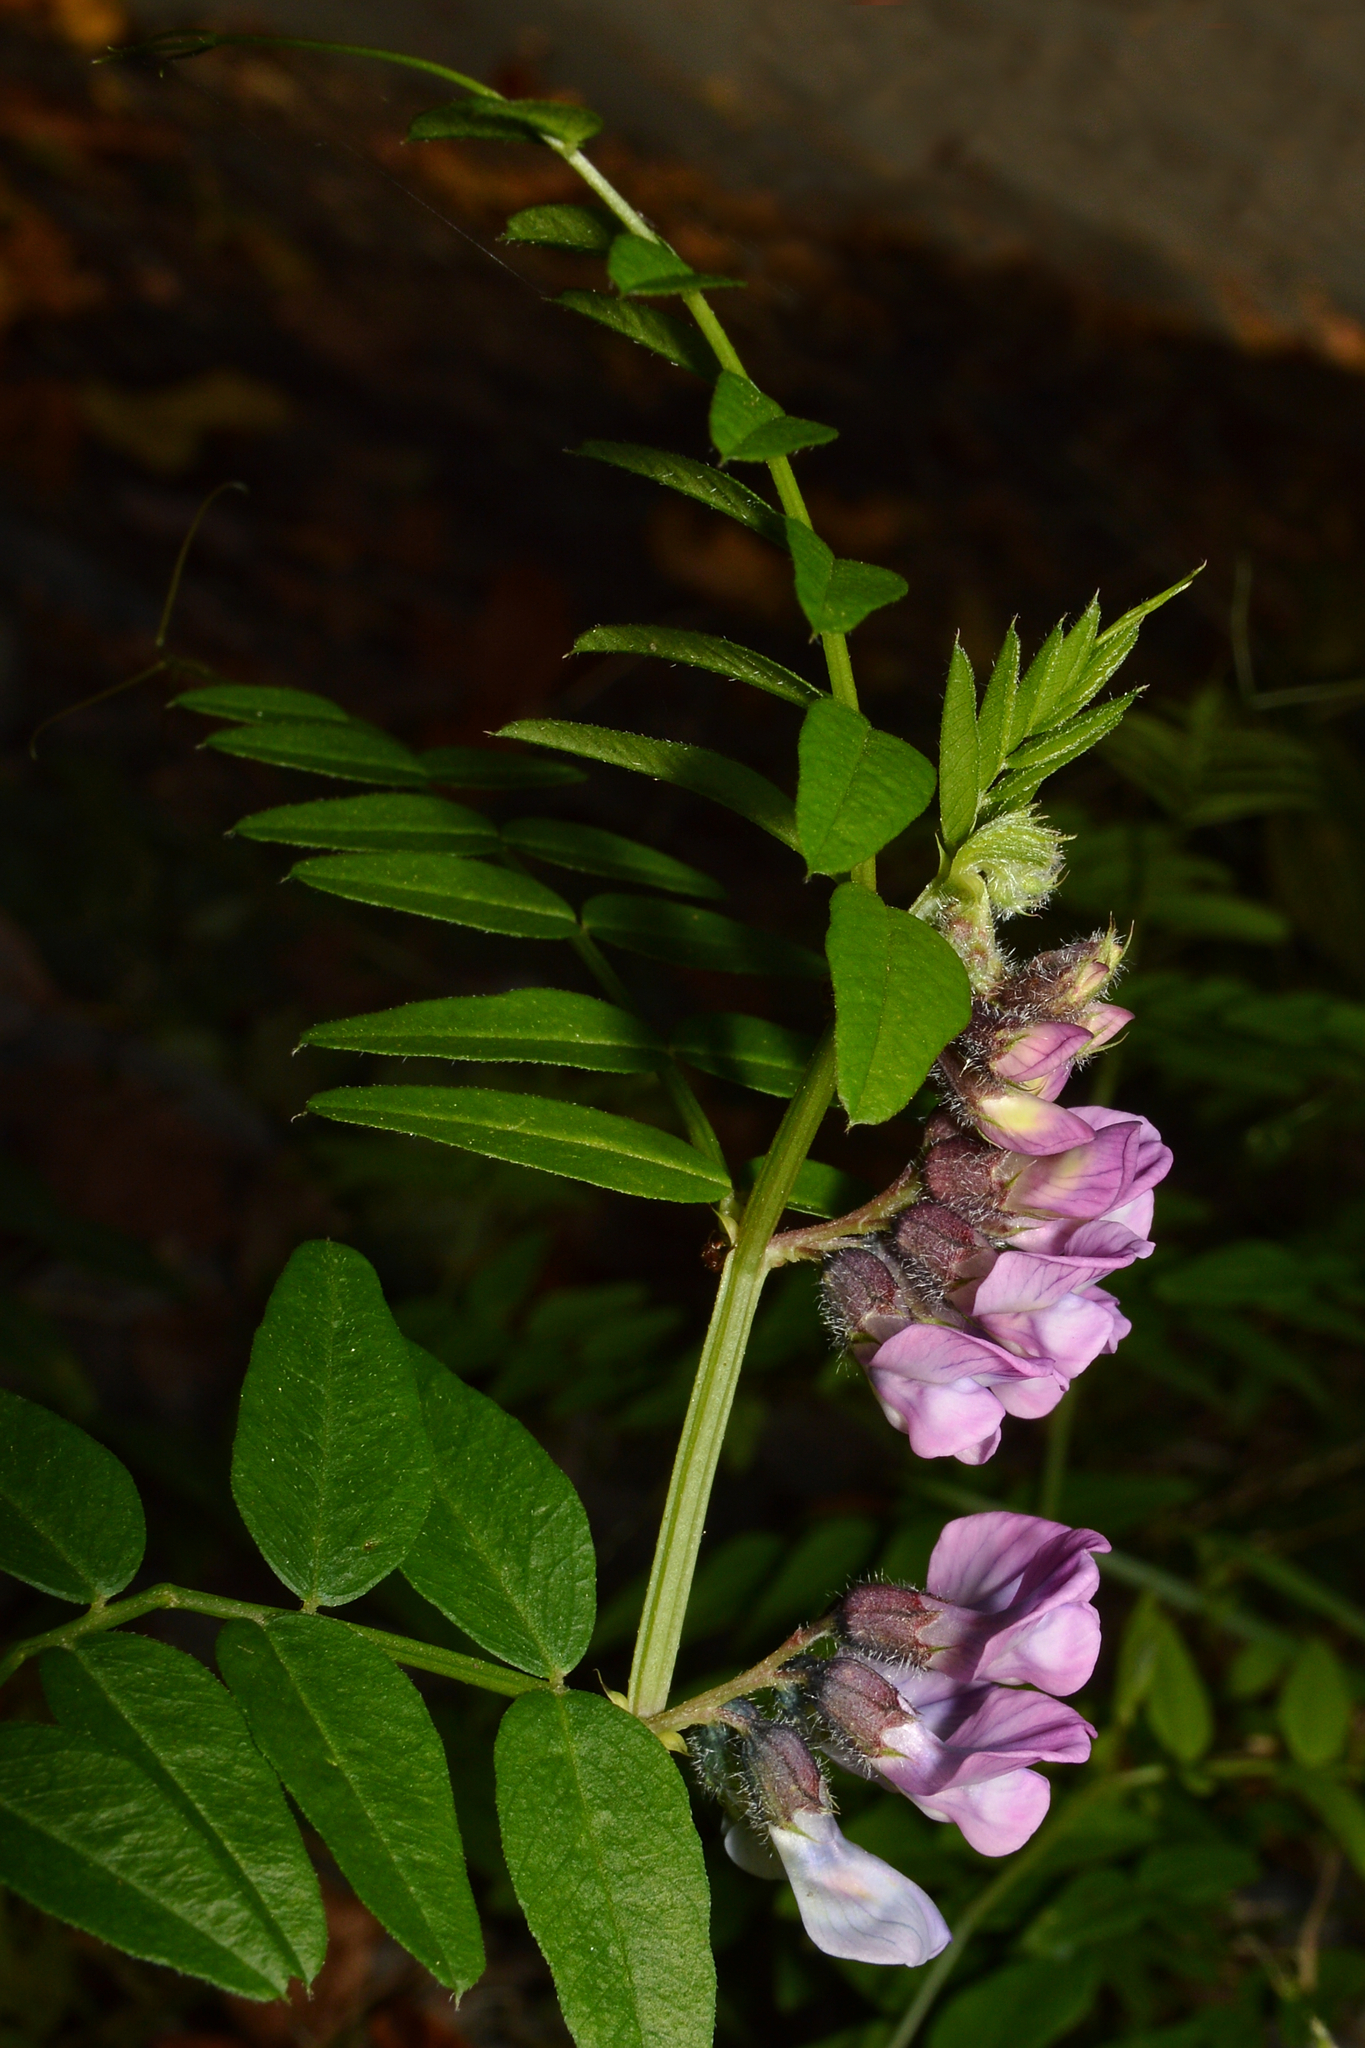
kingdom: Plantae
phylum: Tracheophyta
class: Magnoliopsida
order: Fabales
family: Fabaceae
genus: Vicia
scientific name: Vicia sepium
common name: Bush vetch
